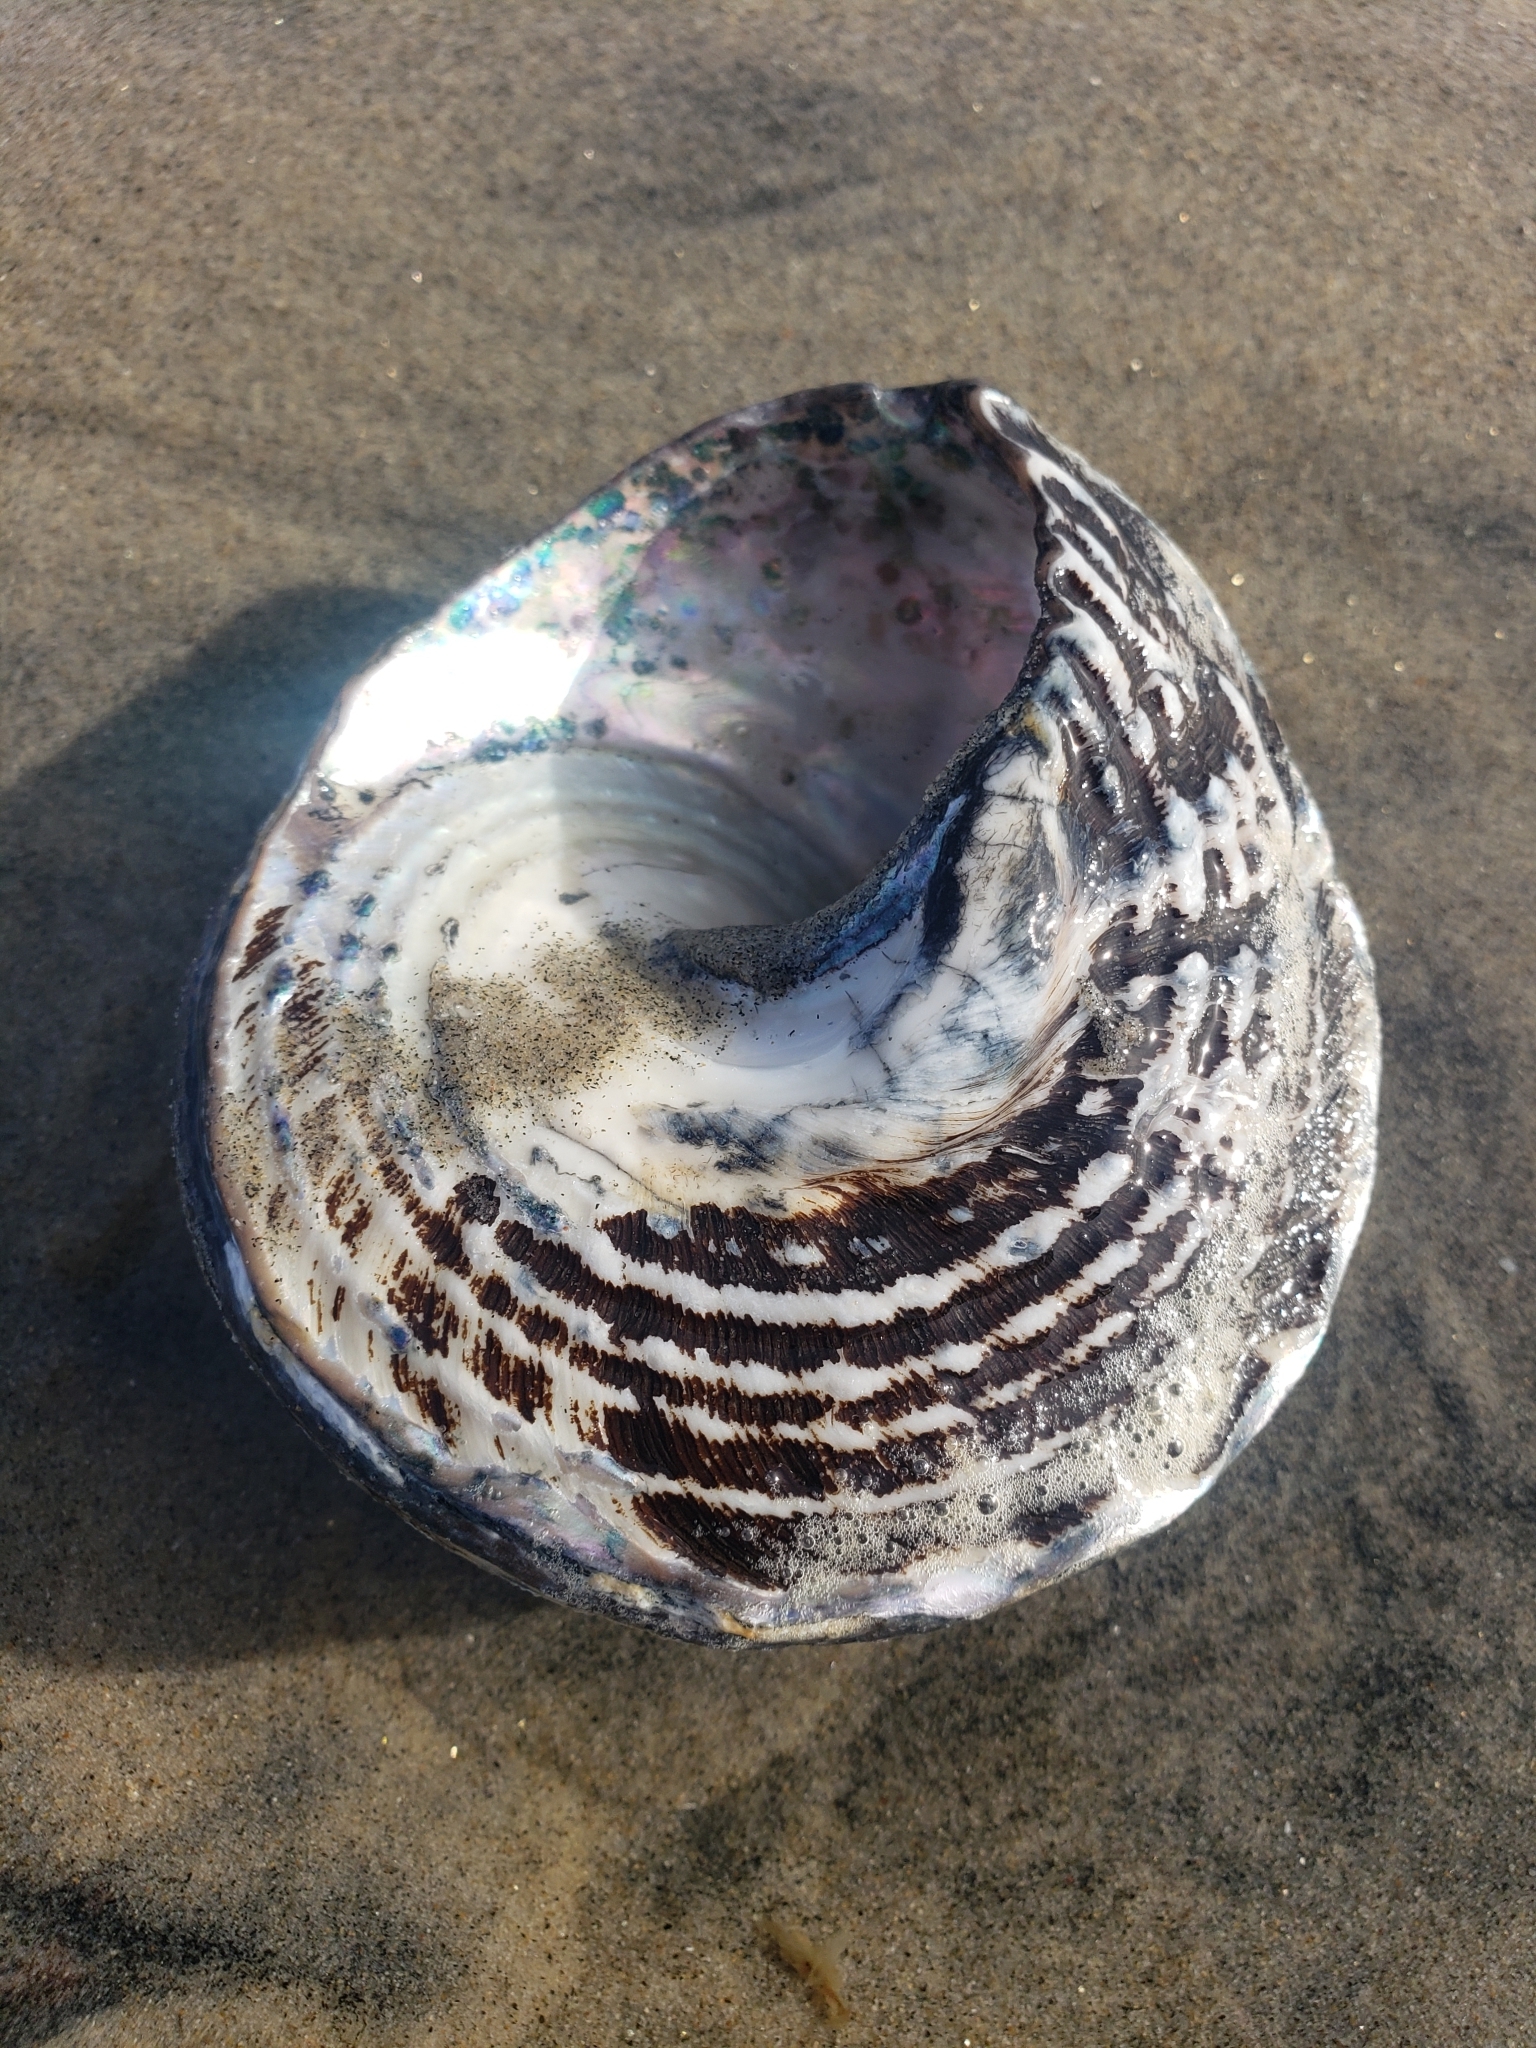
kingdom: Animalia
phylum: Mollusca
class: Gastropoda
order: Trochida
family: Turbinidae
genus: Megastraea
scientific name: Megastraea undosa
